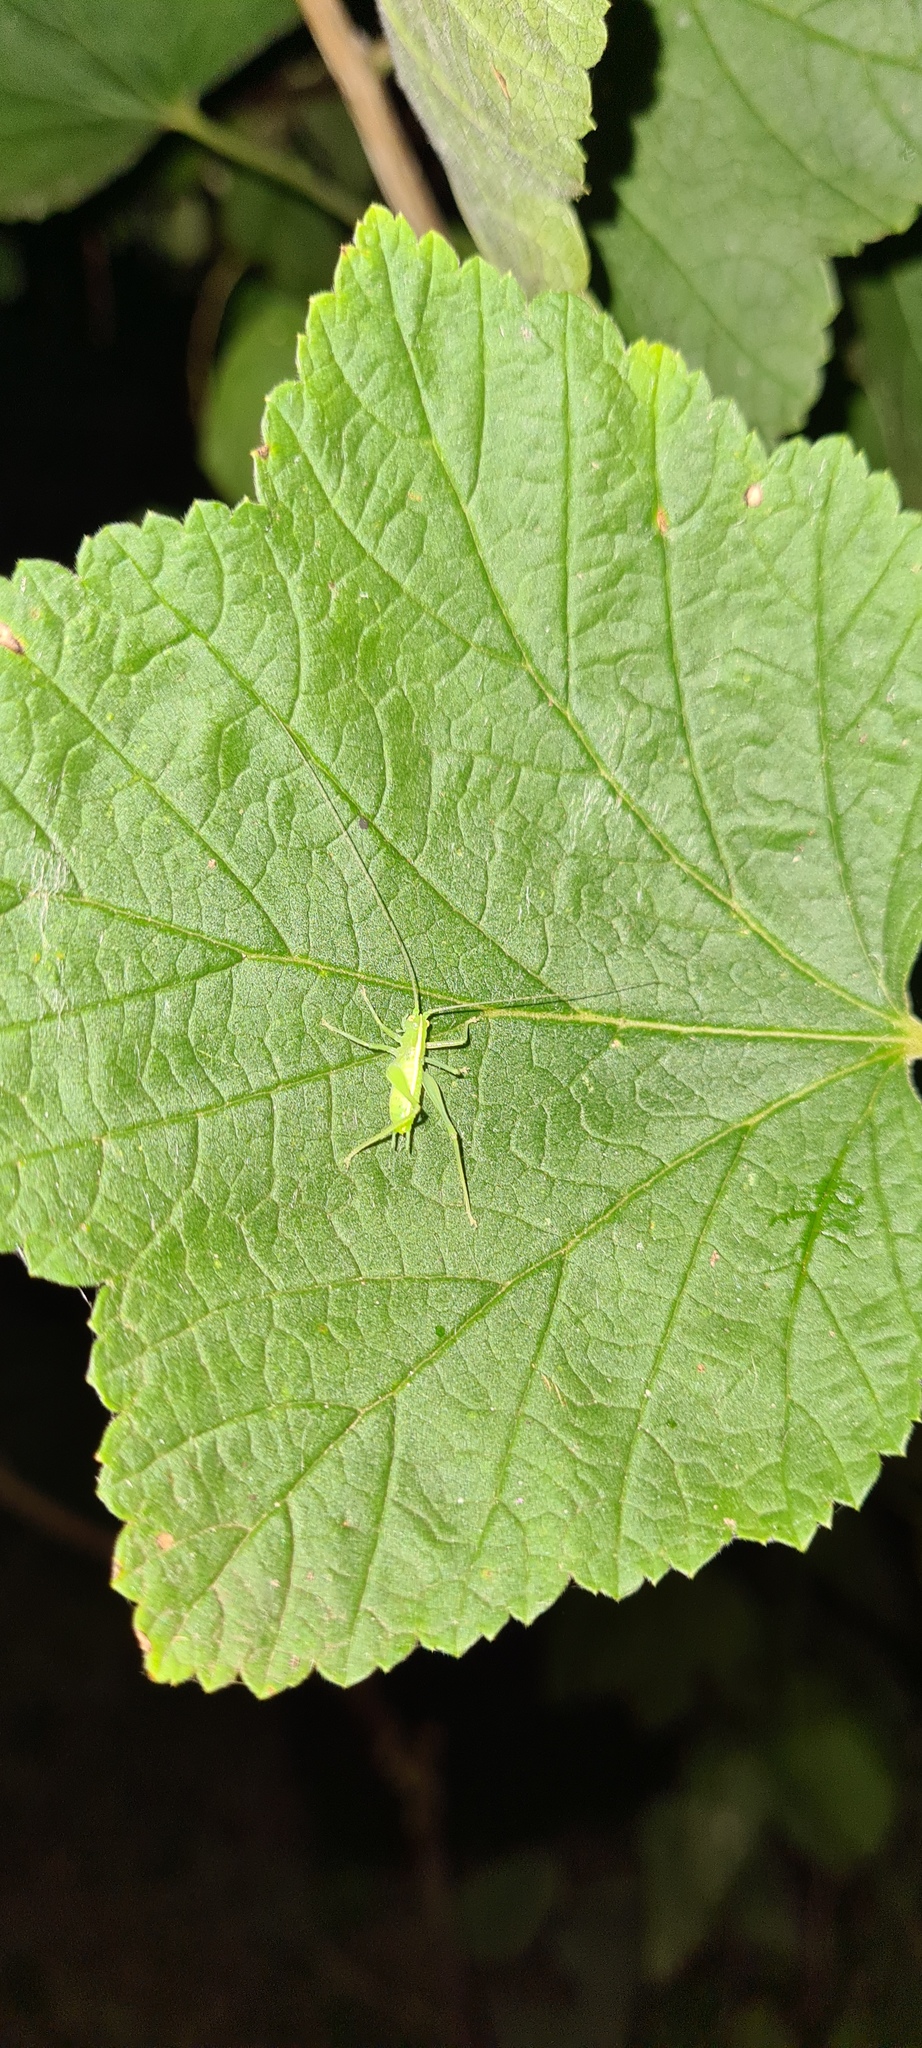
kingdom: Animalia
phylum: Arthropoda
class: Insecta
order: Orthoptera
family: Tettigoniidae
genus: Meconema
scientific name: Meconema meridionale
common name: Southern oak bush-cricket
